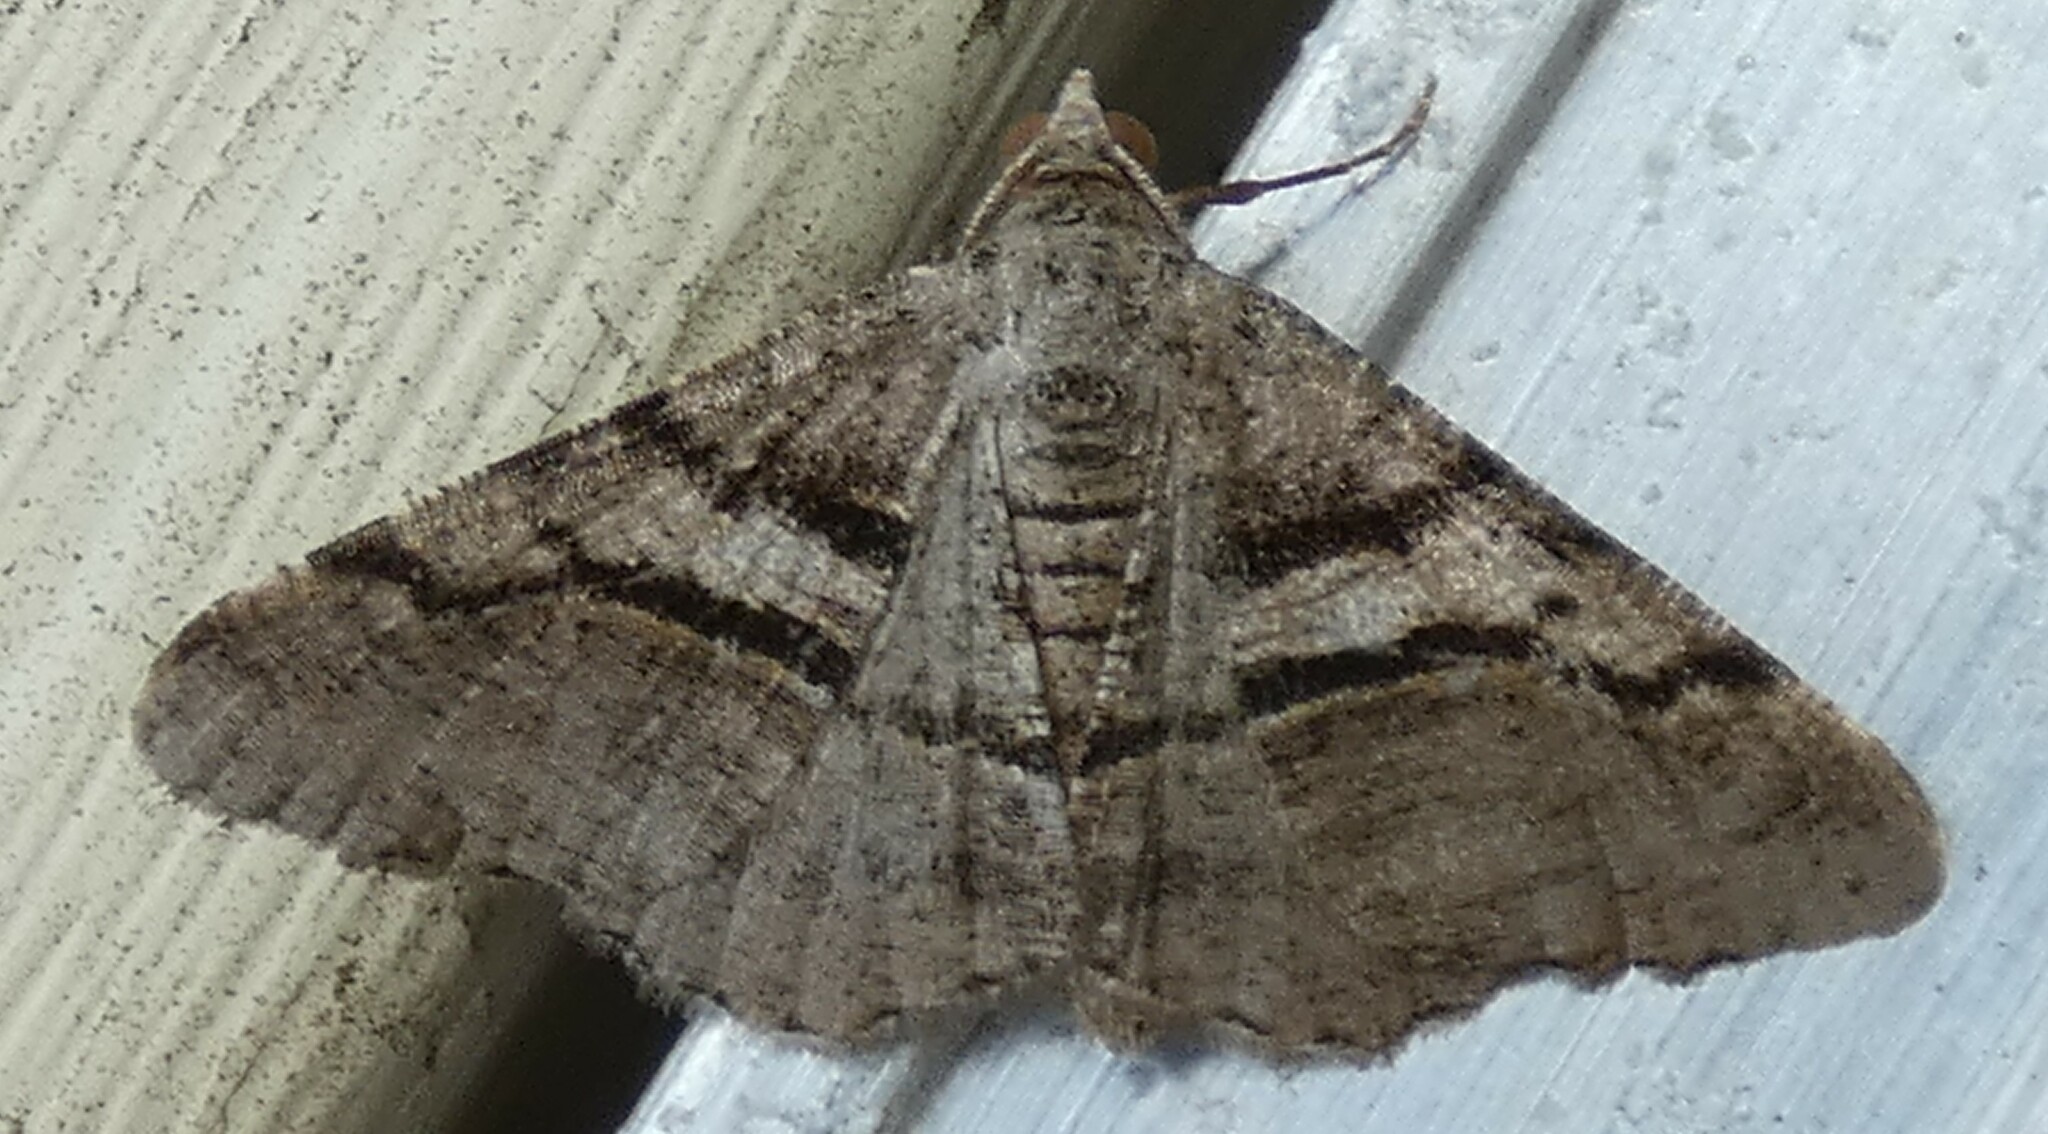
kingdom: Animalia
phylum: Arthropoda
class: Insecta
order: Lepidoptera
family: Geometridae
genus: Digrammia
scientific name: Digrammia continuata
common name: Curve-lined angle
